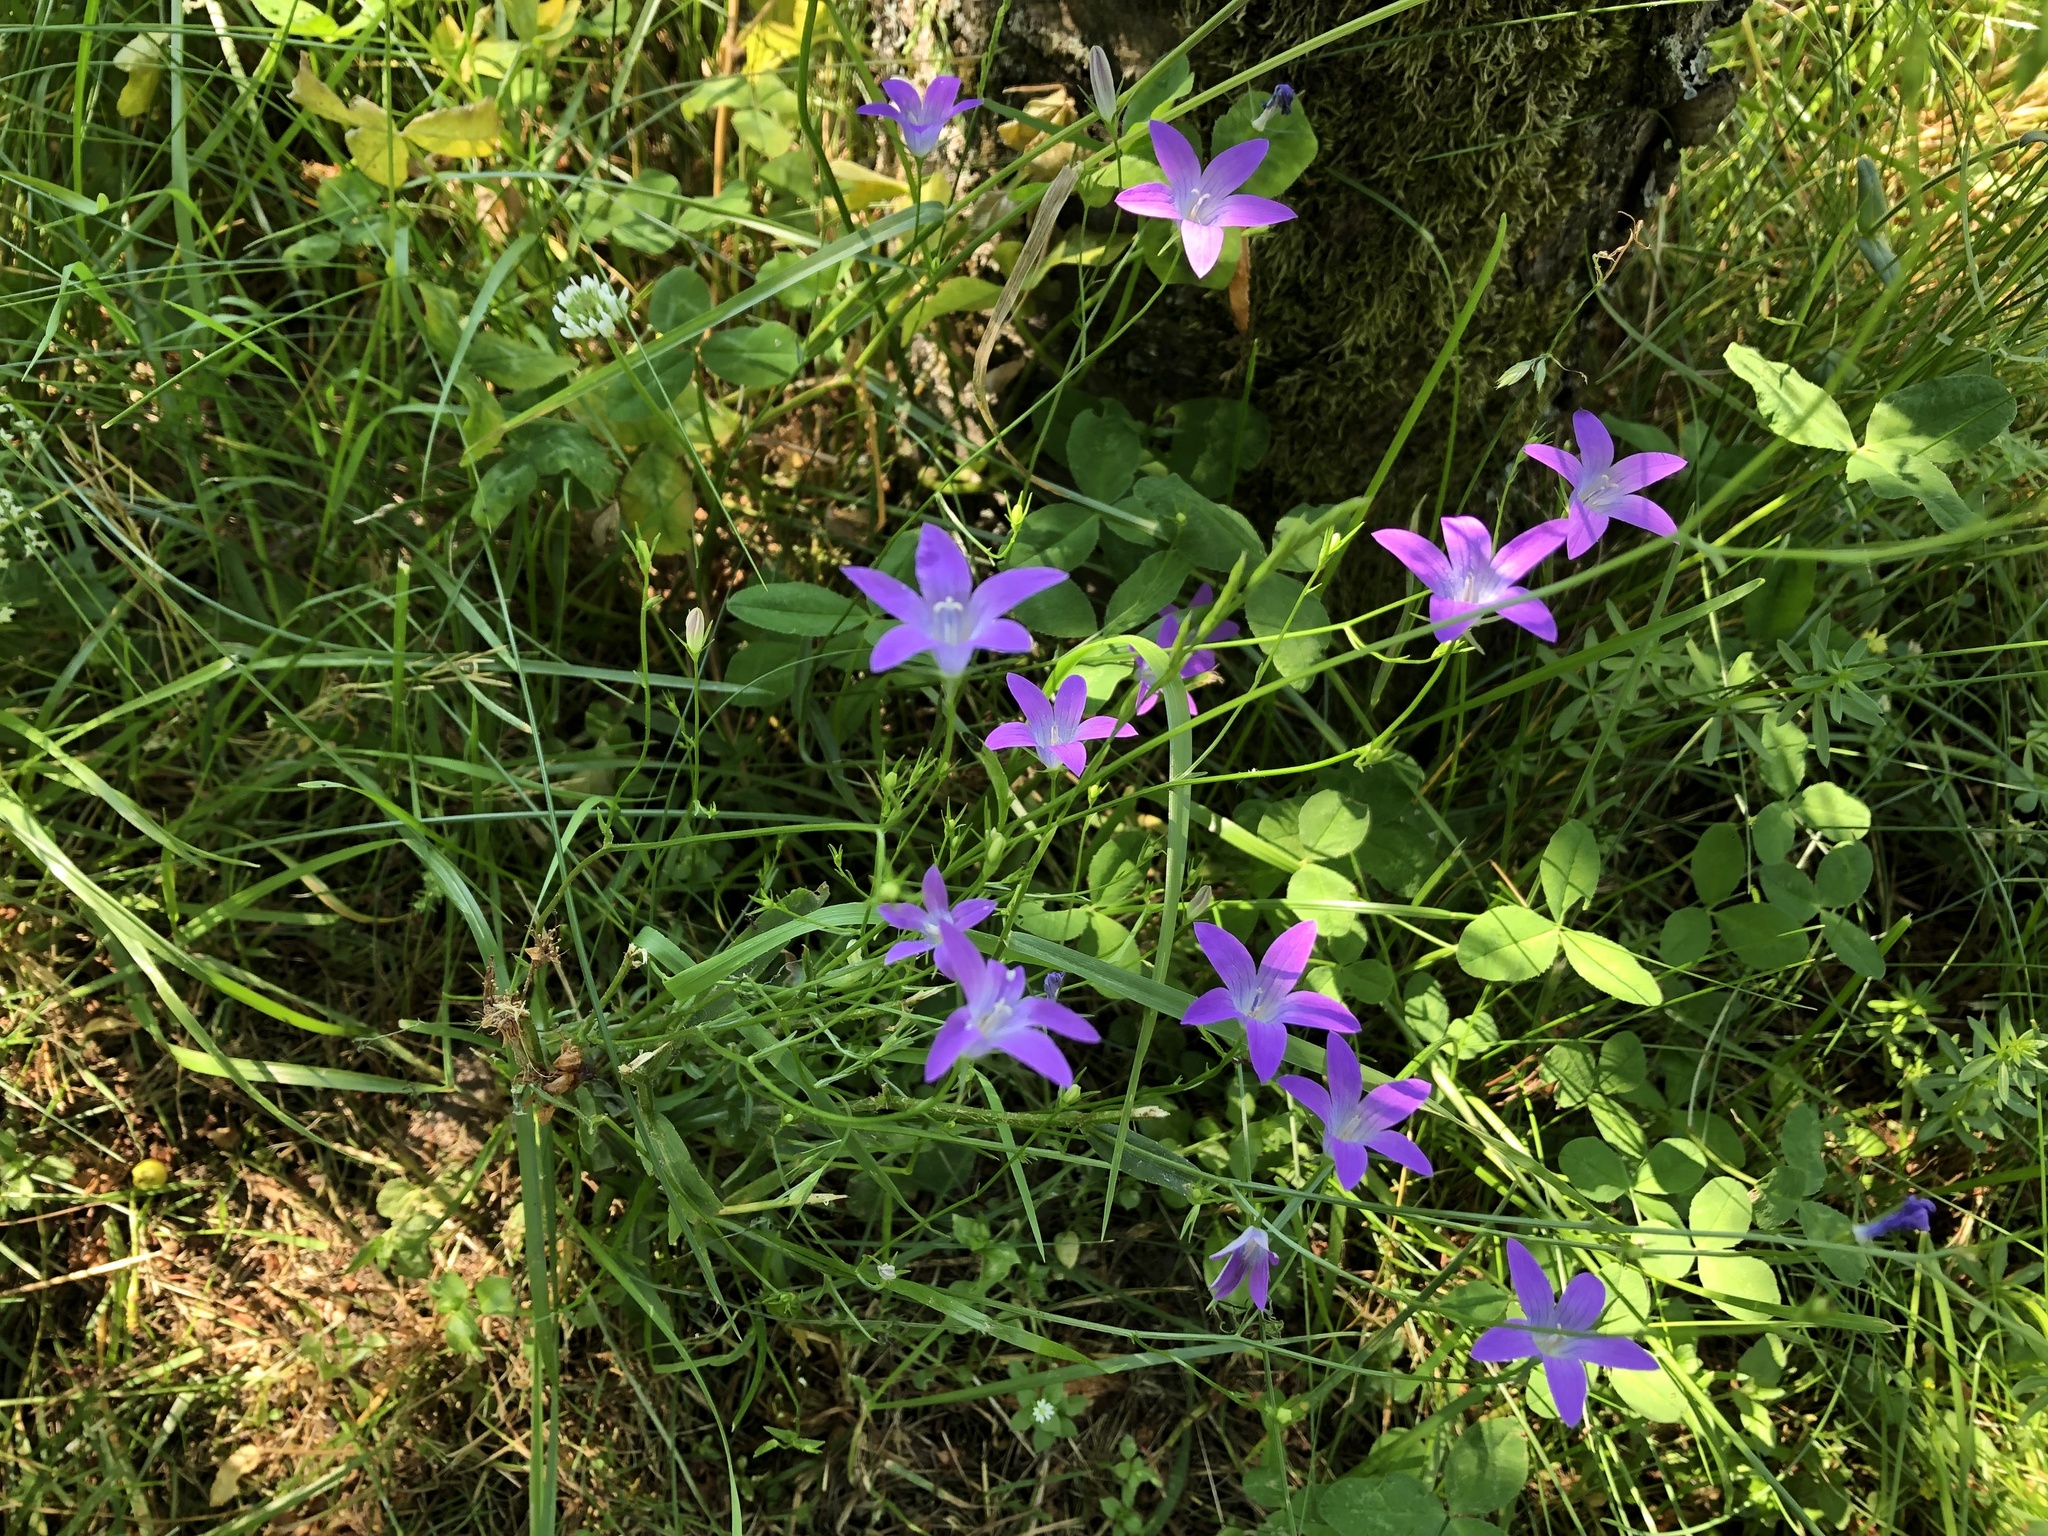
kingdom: Plantae
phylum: Tracheophyta
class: Magnoliopsida
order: Asterales
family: Campanulaceae
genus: Campanula
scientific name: Campanula patula
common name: Spreading bellflower
